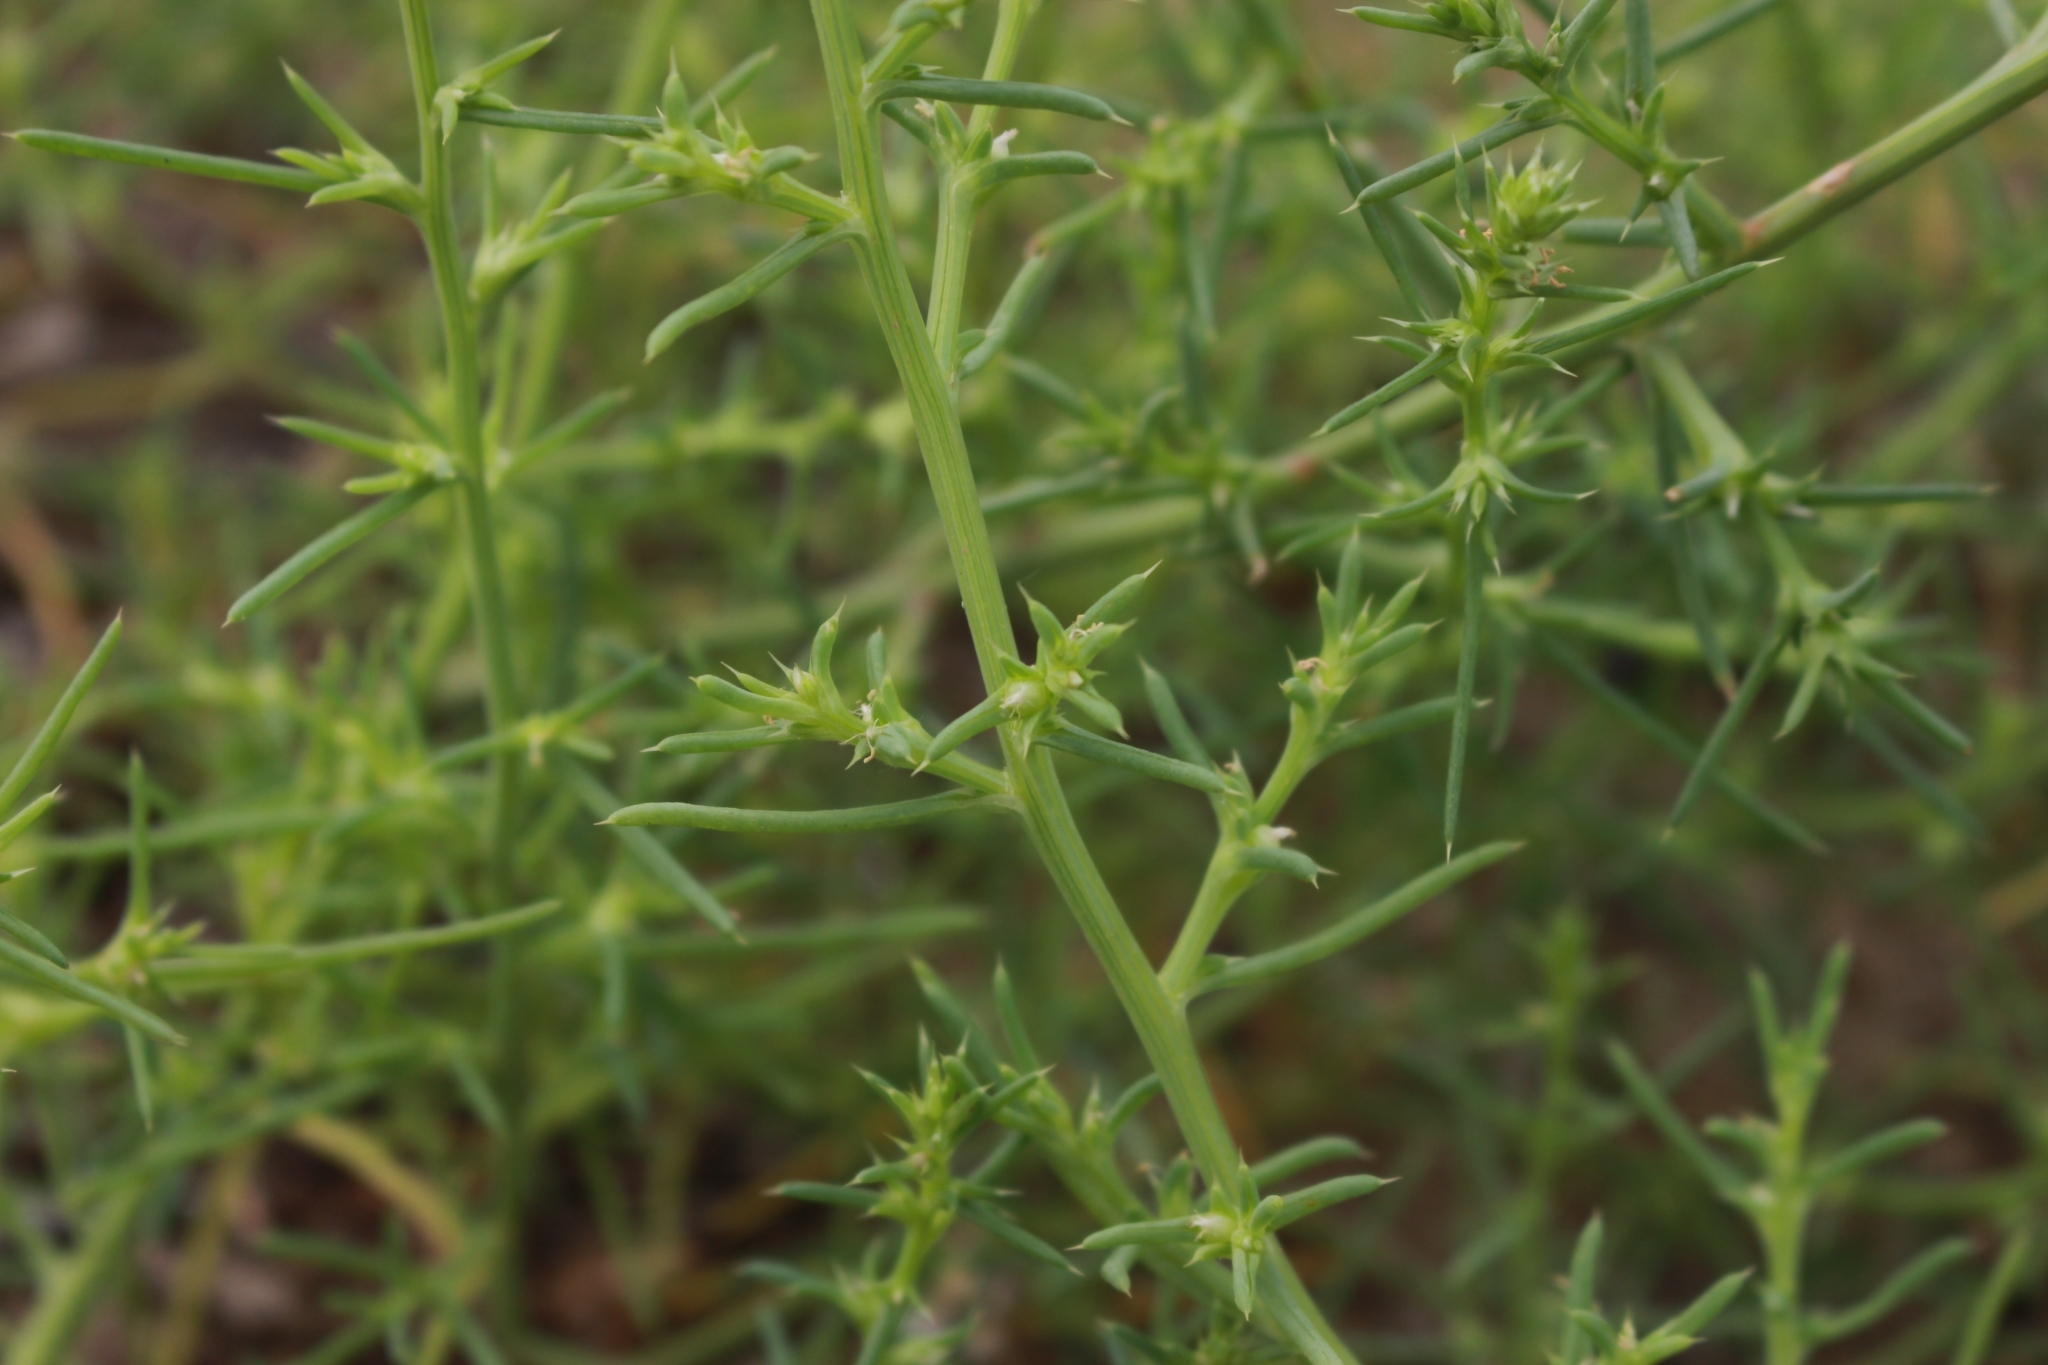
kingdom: Plantae
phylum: Tracheophyta
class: Magnoliopsida
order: Caryophyllales
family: Amaranthaceae
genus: Salsola
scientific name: Salsola kali
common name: Saltwort
